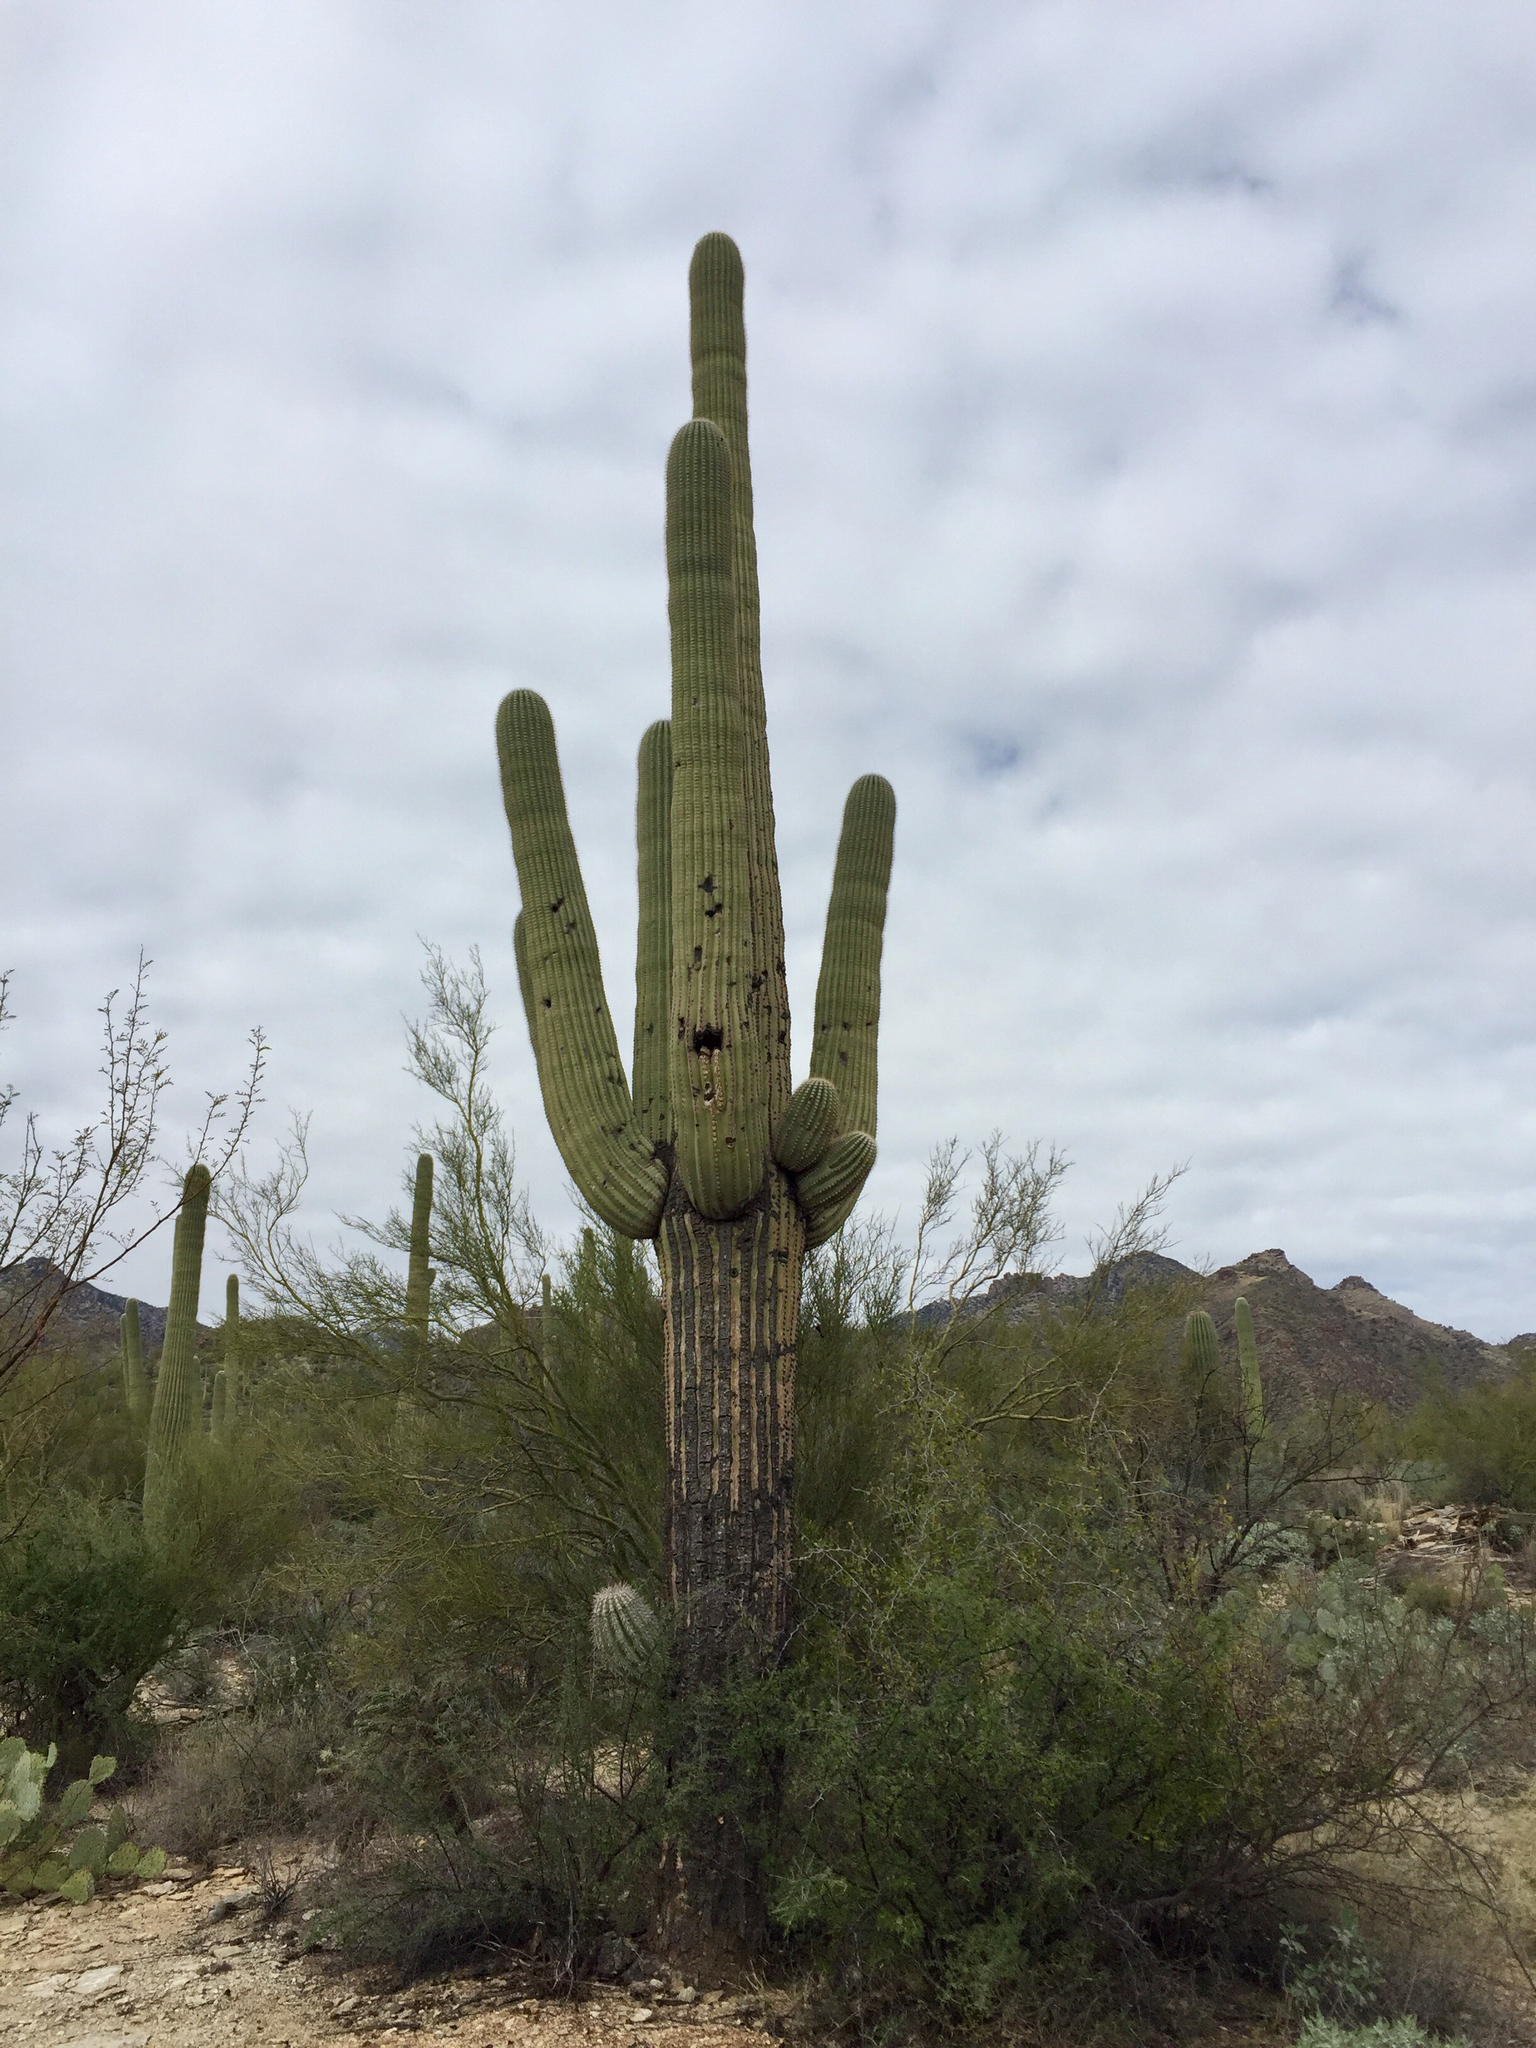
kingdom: Plantae
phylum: Tracheophyta
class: Magnoliopsida
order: Caryophyllales
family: Cactaceae
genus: Carnegiea
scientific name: Carnegiea gigantea
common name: Saguaro
